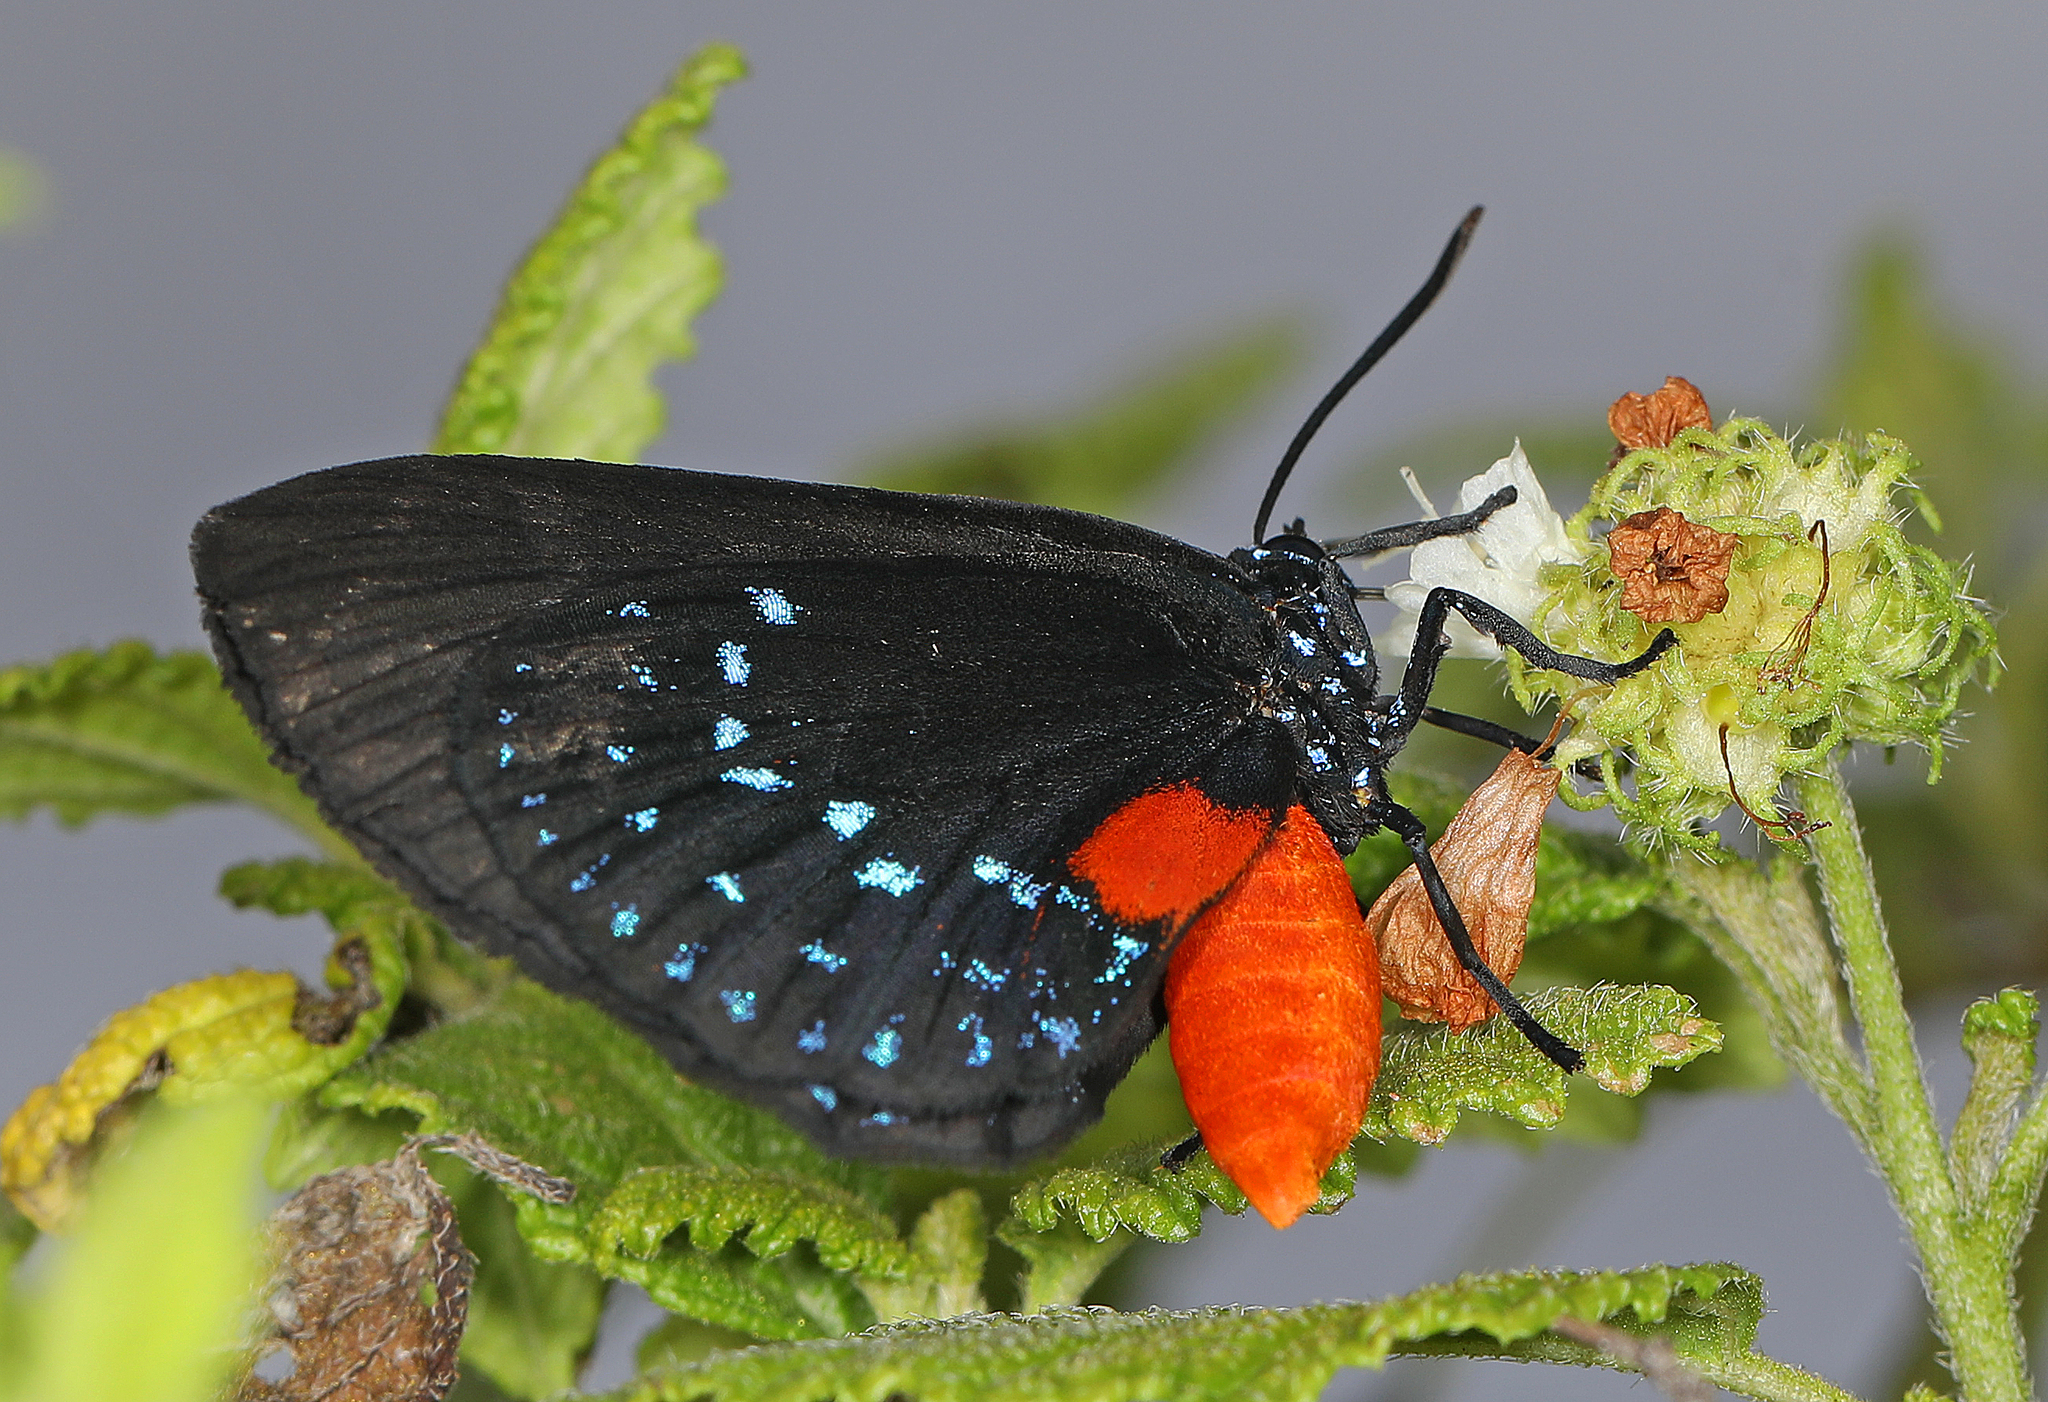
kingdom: Animalia
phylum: Arthropoda
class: Insecta
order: Lepidoptera
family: Lycaenidae
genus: Eumaeus
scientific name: Eumaeus atala
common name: Atala
